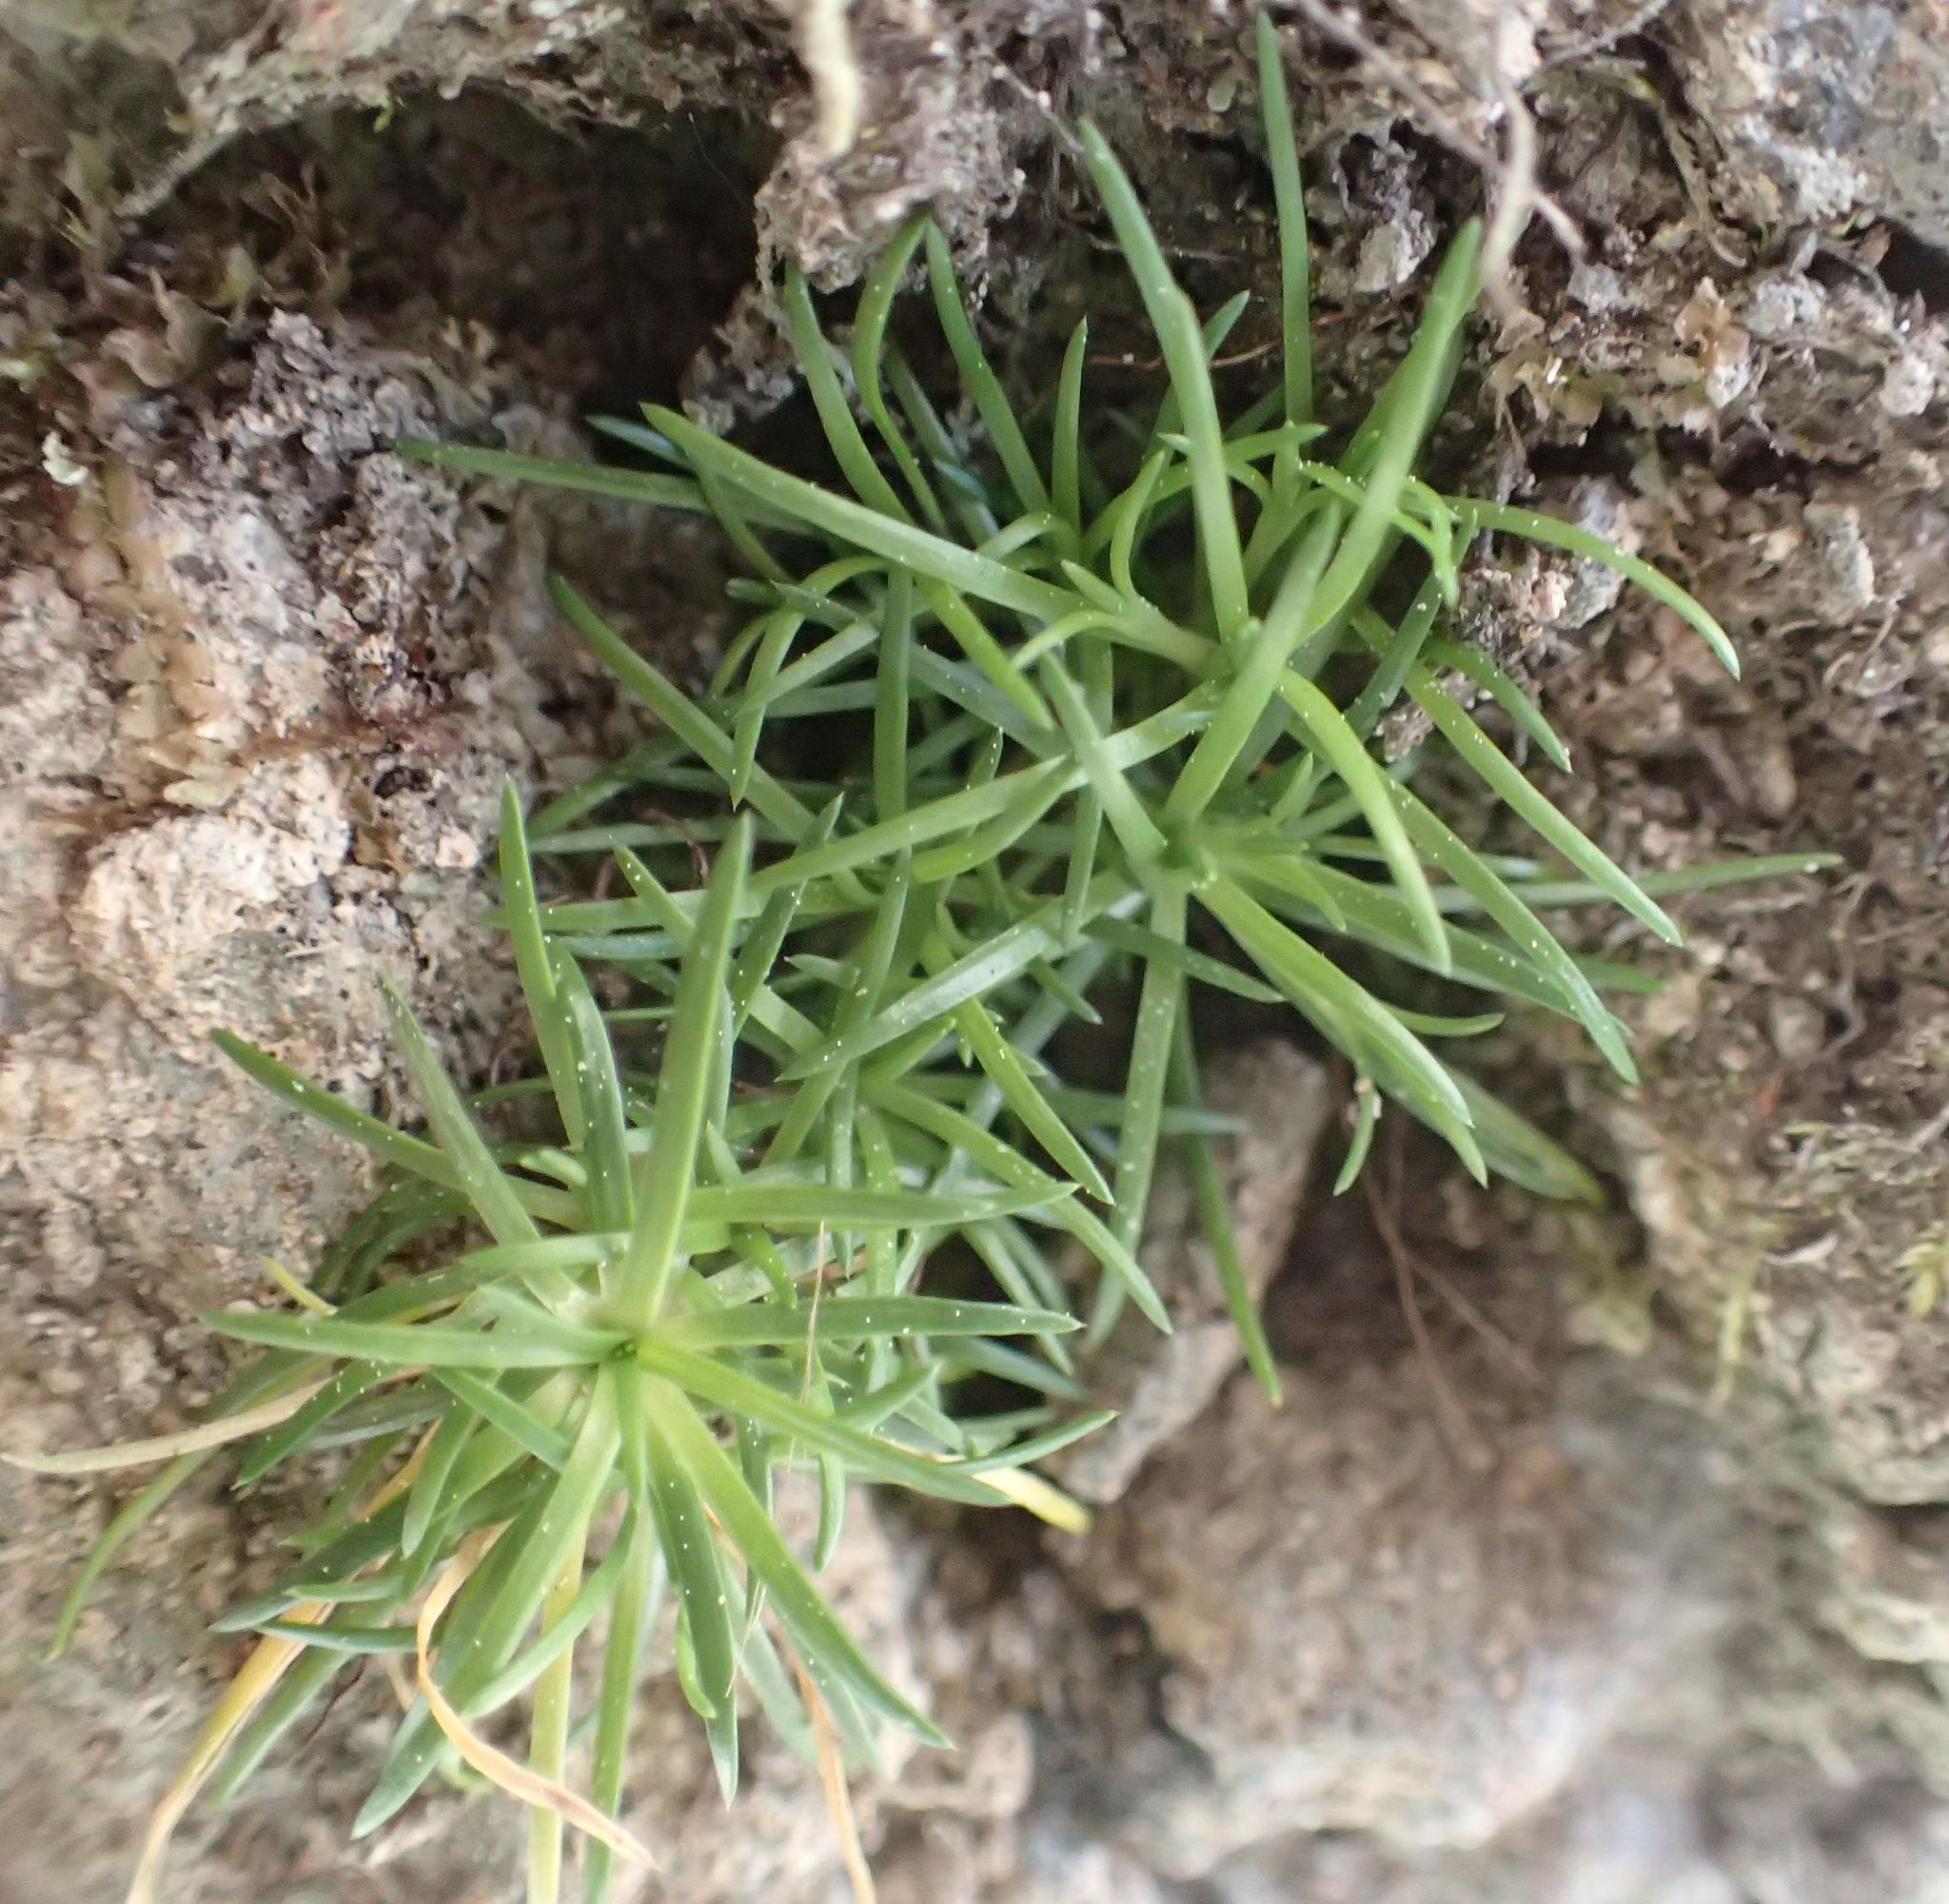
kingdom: Plantae
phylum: Tracheophyta
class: Magnoliopsida
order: Caryophyllales
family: Caryophyllaceae
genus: Sagina
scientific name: Sagina procumbens
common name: Procumbent pearlwort
